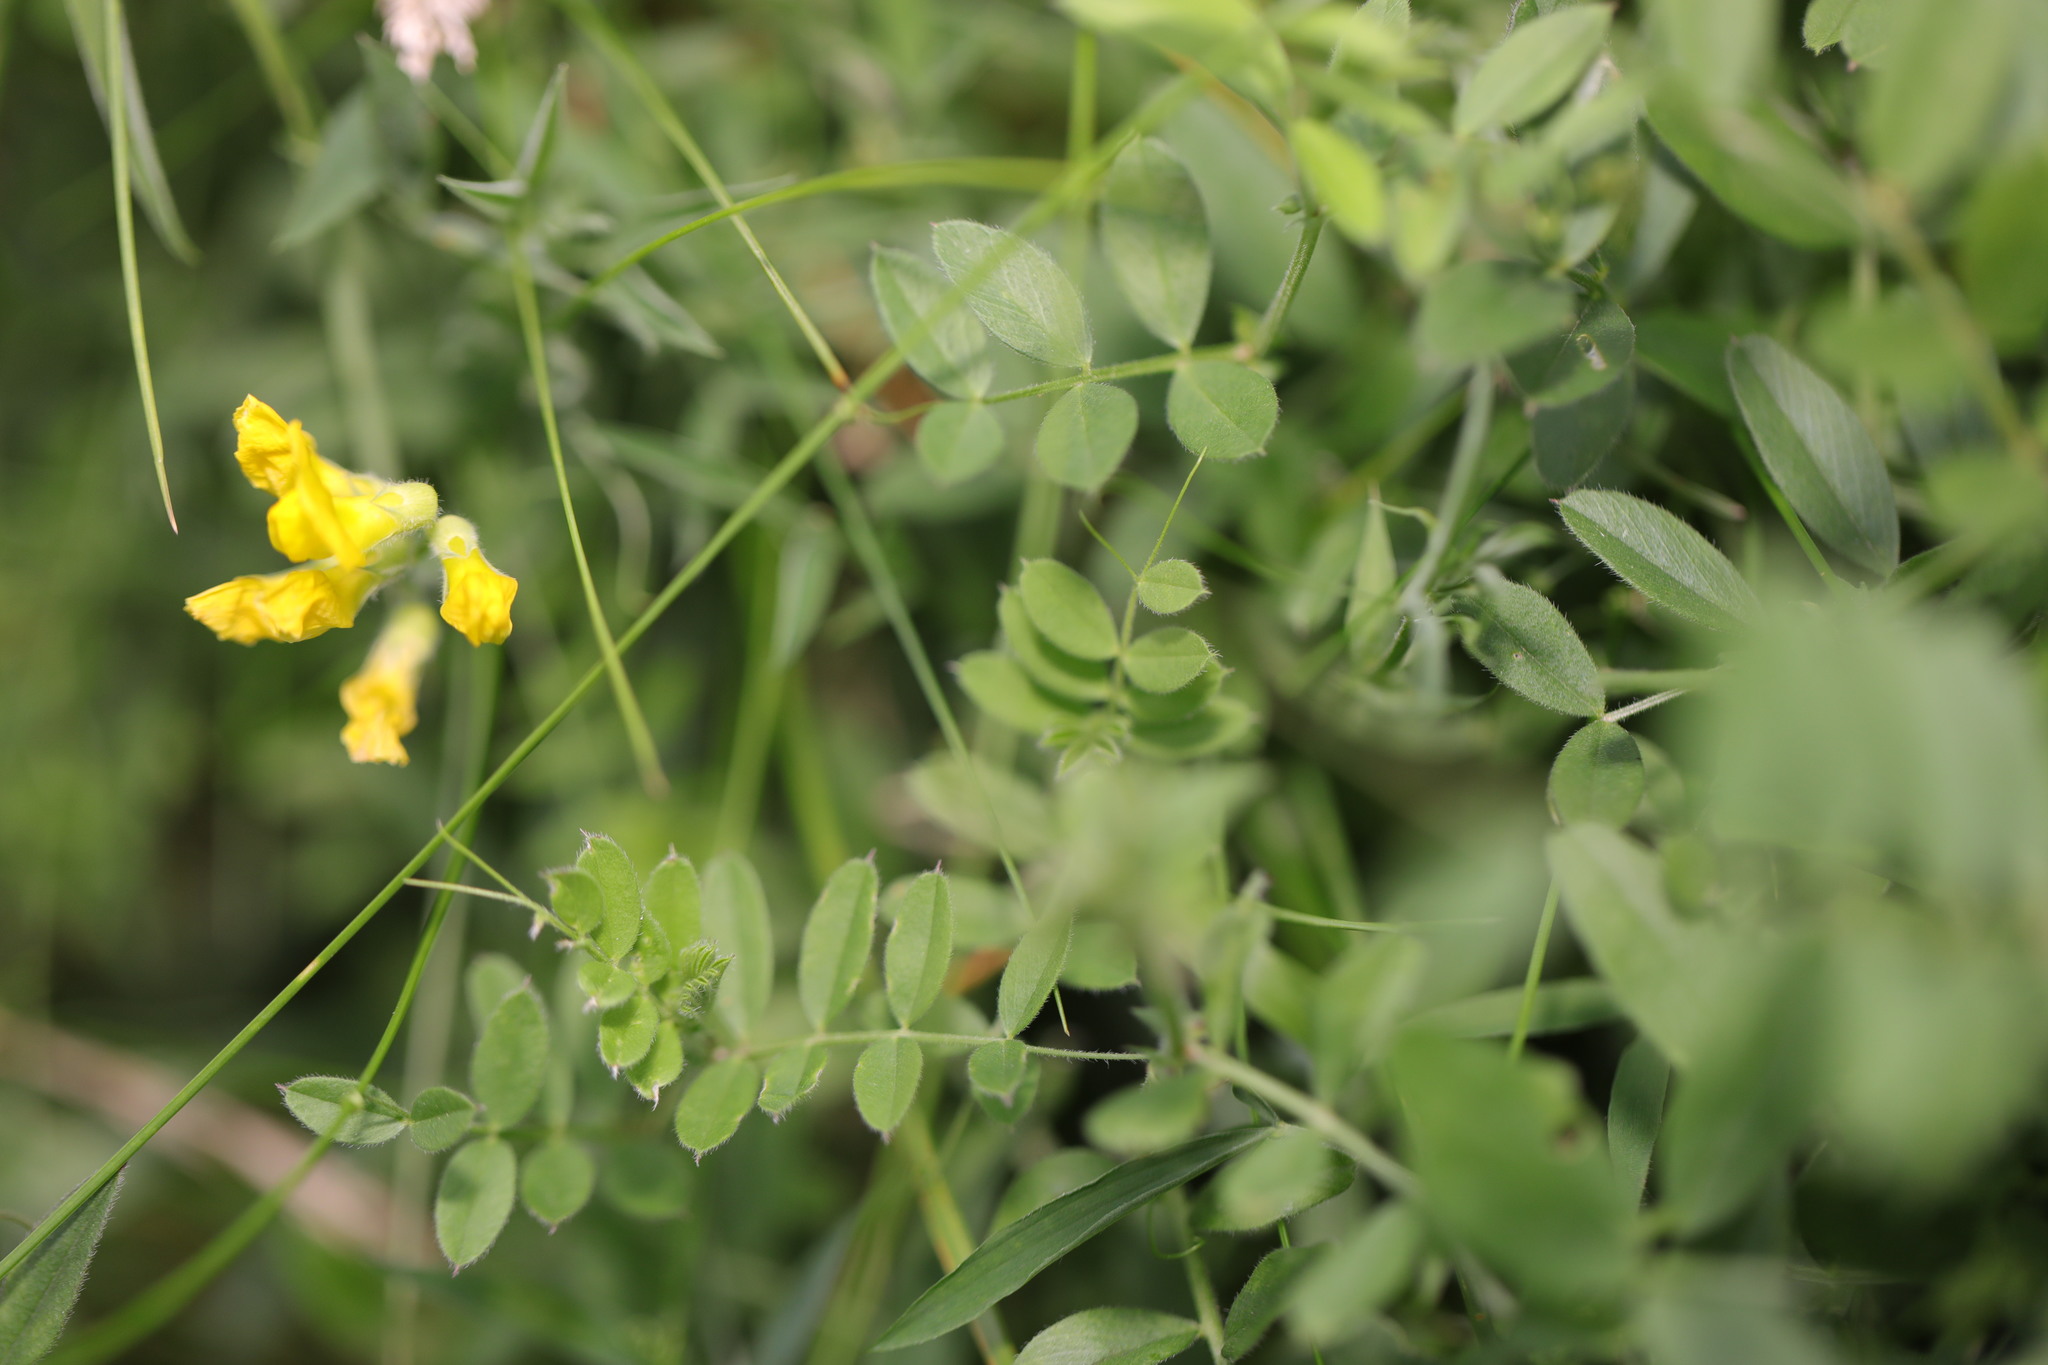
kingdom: Plantae
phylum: Tracheophyta
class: Magnoliopsida
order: Fabales
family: Fabaceae
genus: Lathyrus
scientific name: Lathyrus pratensis
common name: Meadow vetchling
